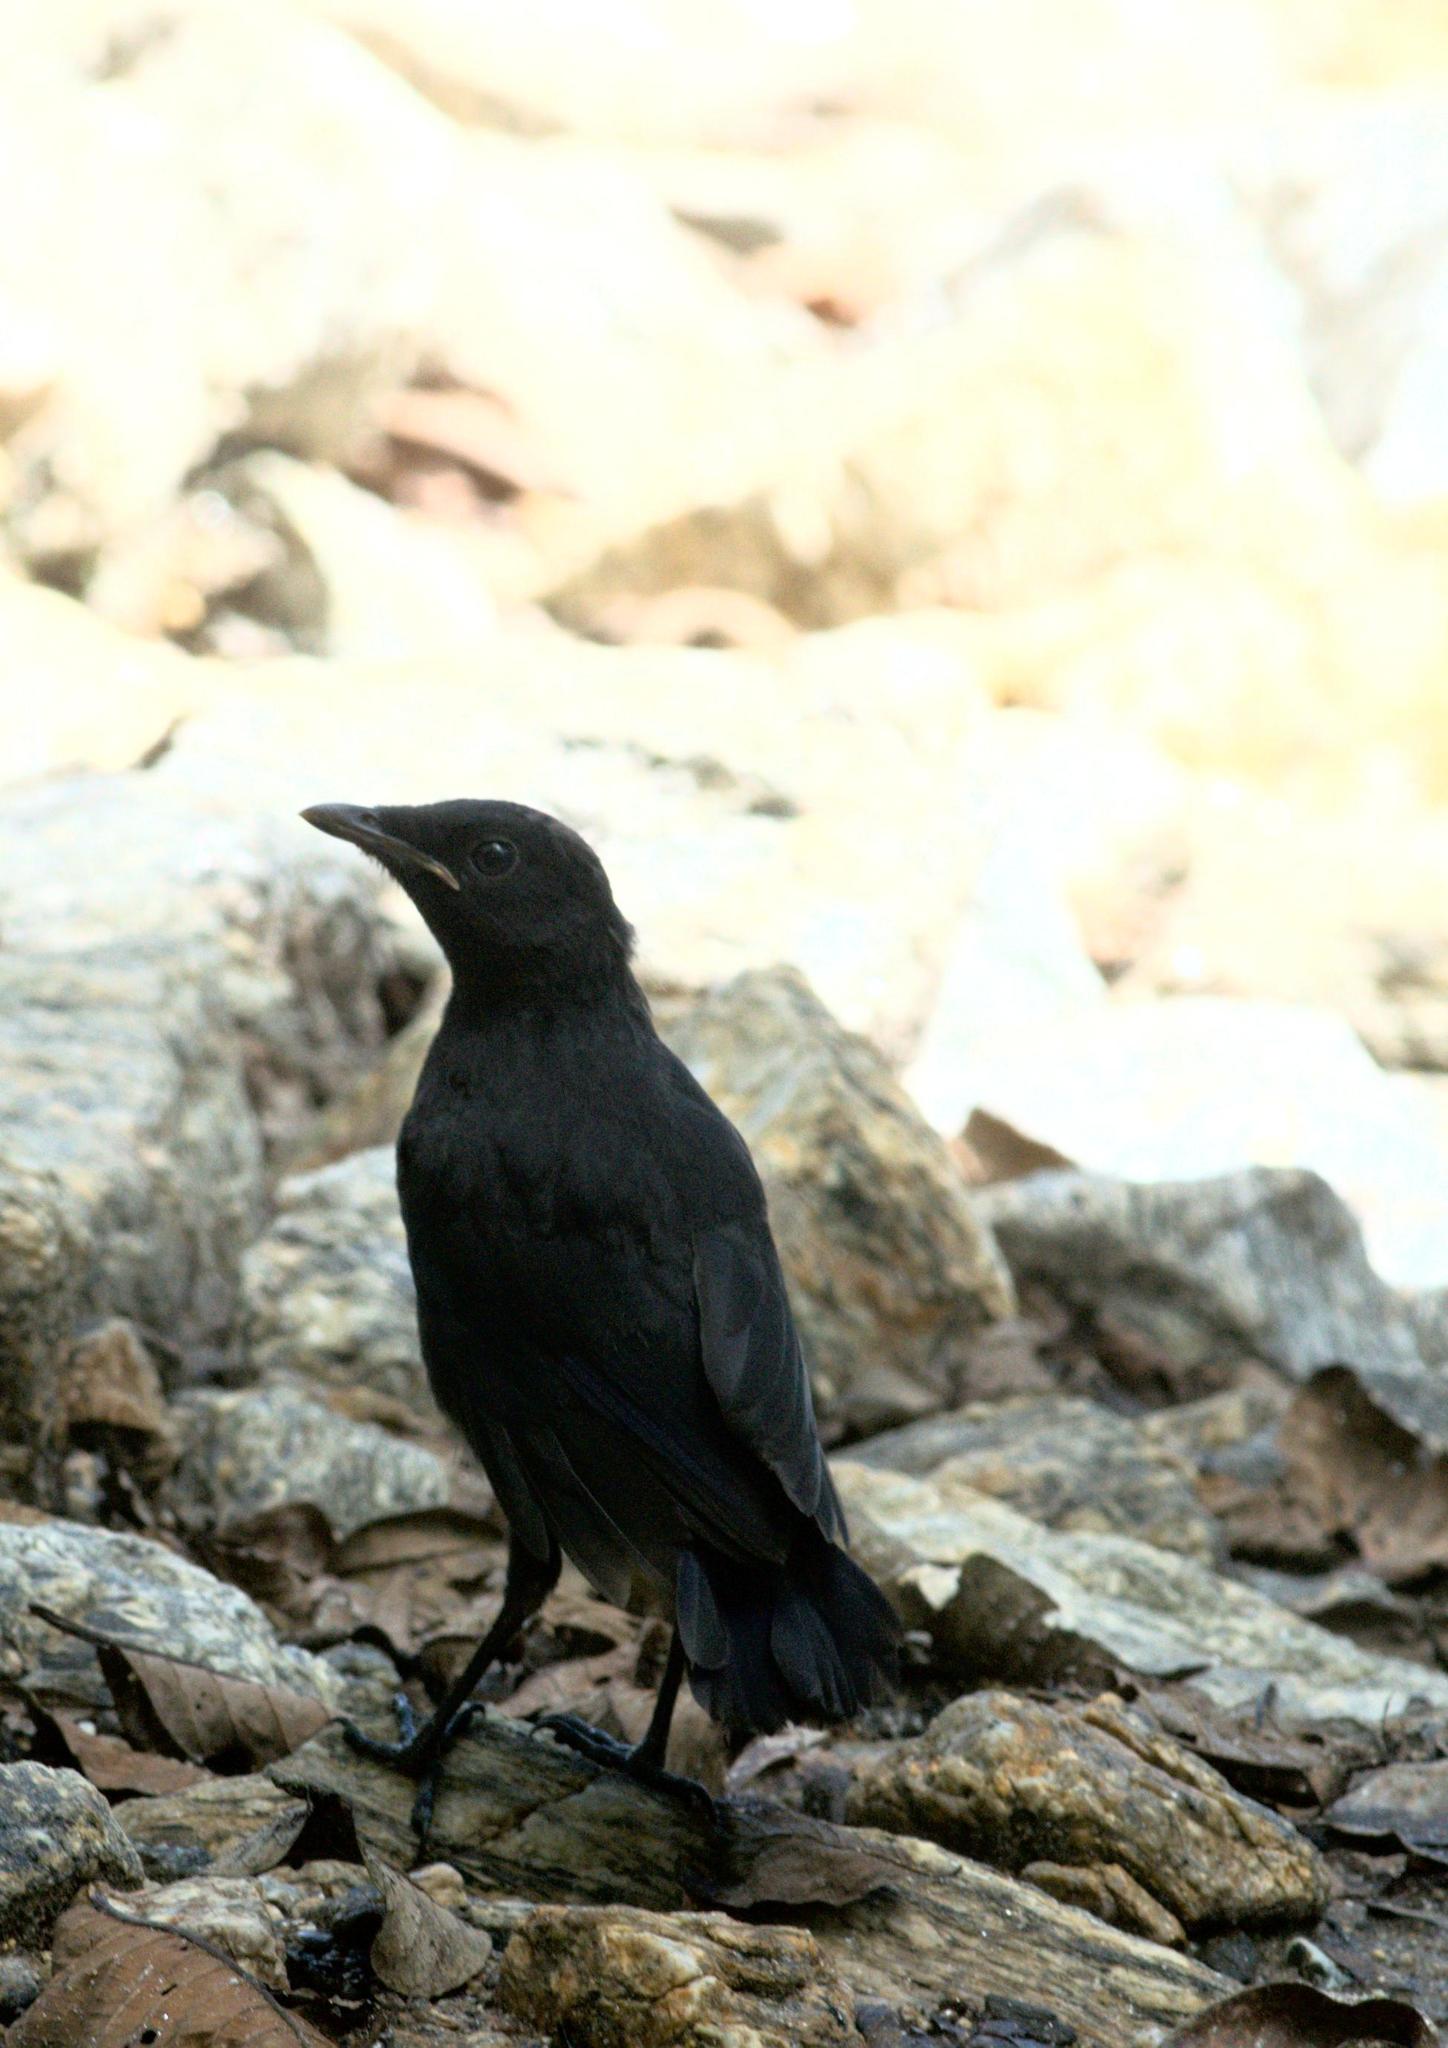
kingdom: Animalia
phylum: Chordata
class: Aves
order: Passeriformes
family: Muscicapidae
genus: Myophonus
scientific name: Myophonus caeruleus
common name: Blue whistling-thrush
